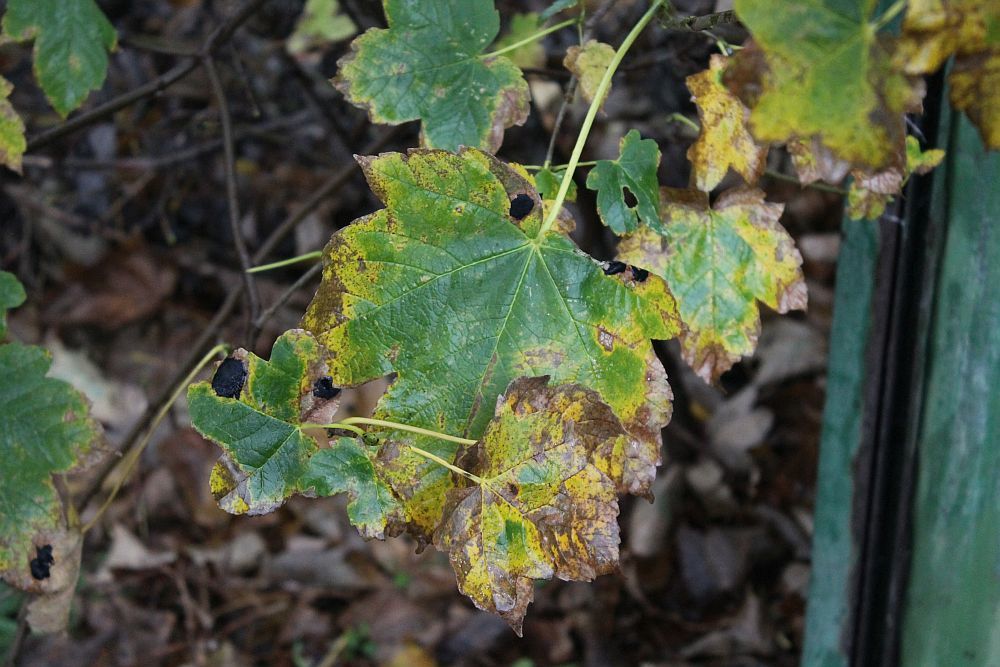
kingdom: Plantae
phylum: Tracheophyta
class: Magnoliopsida
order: Sapindales
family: Sapindaceae
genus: Acer
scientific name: Acer pseudoplatanus
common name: Sycamore
